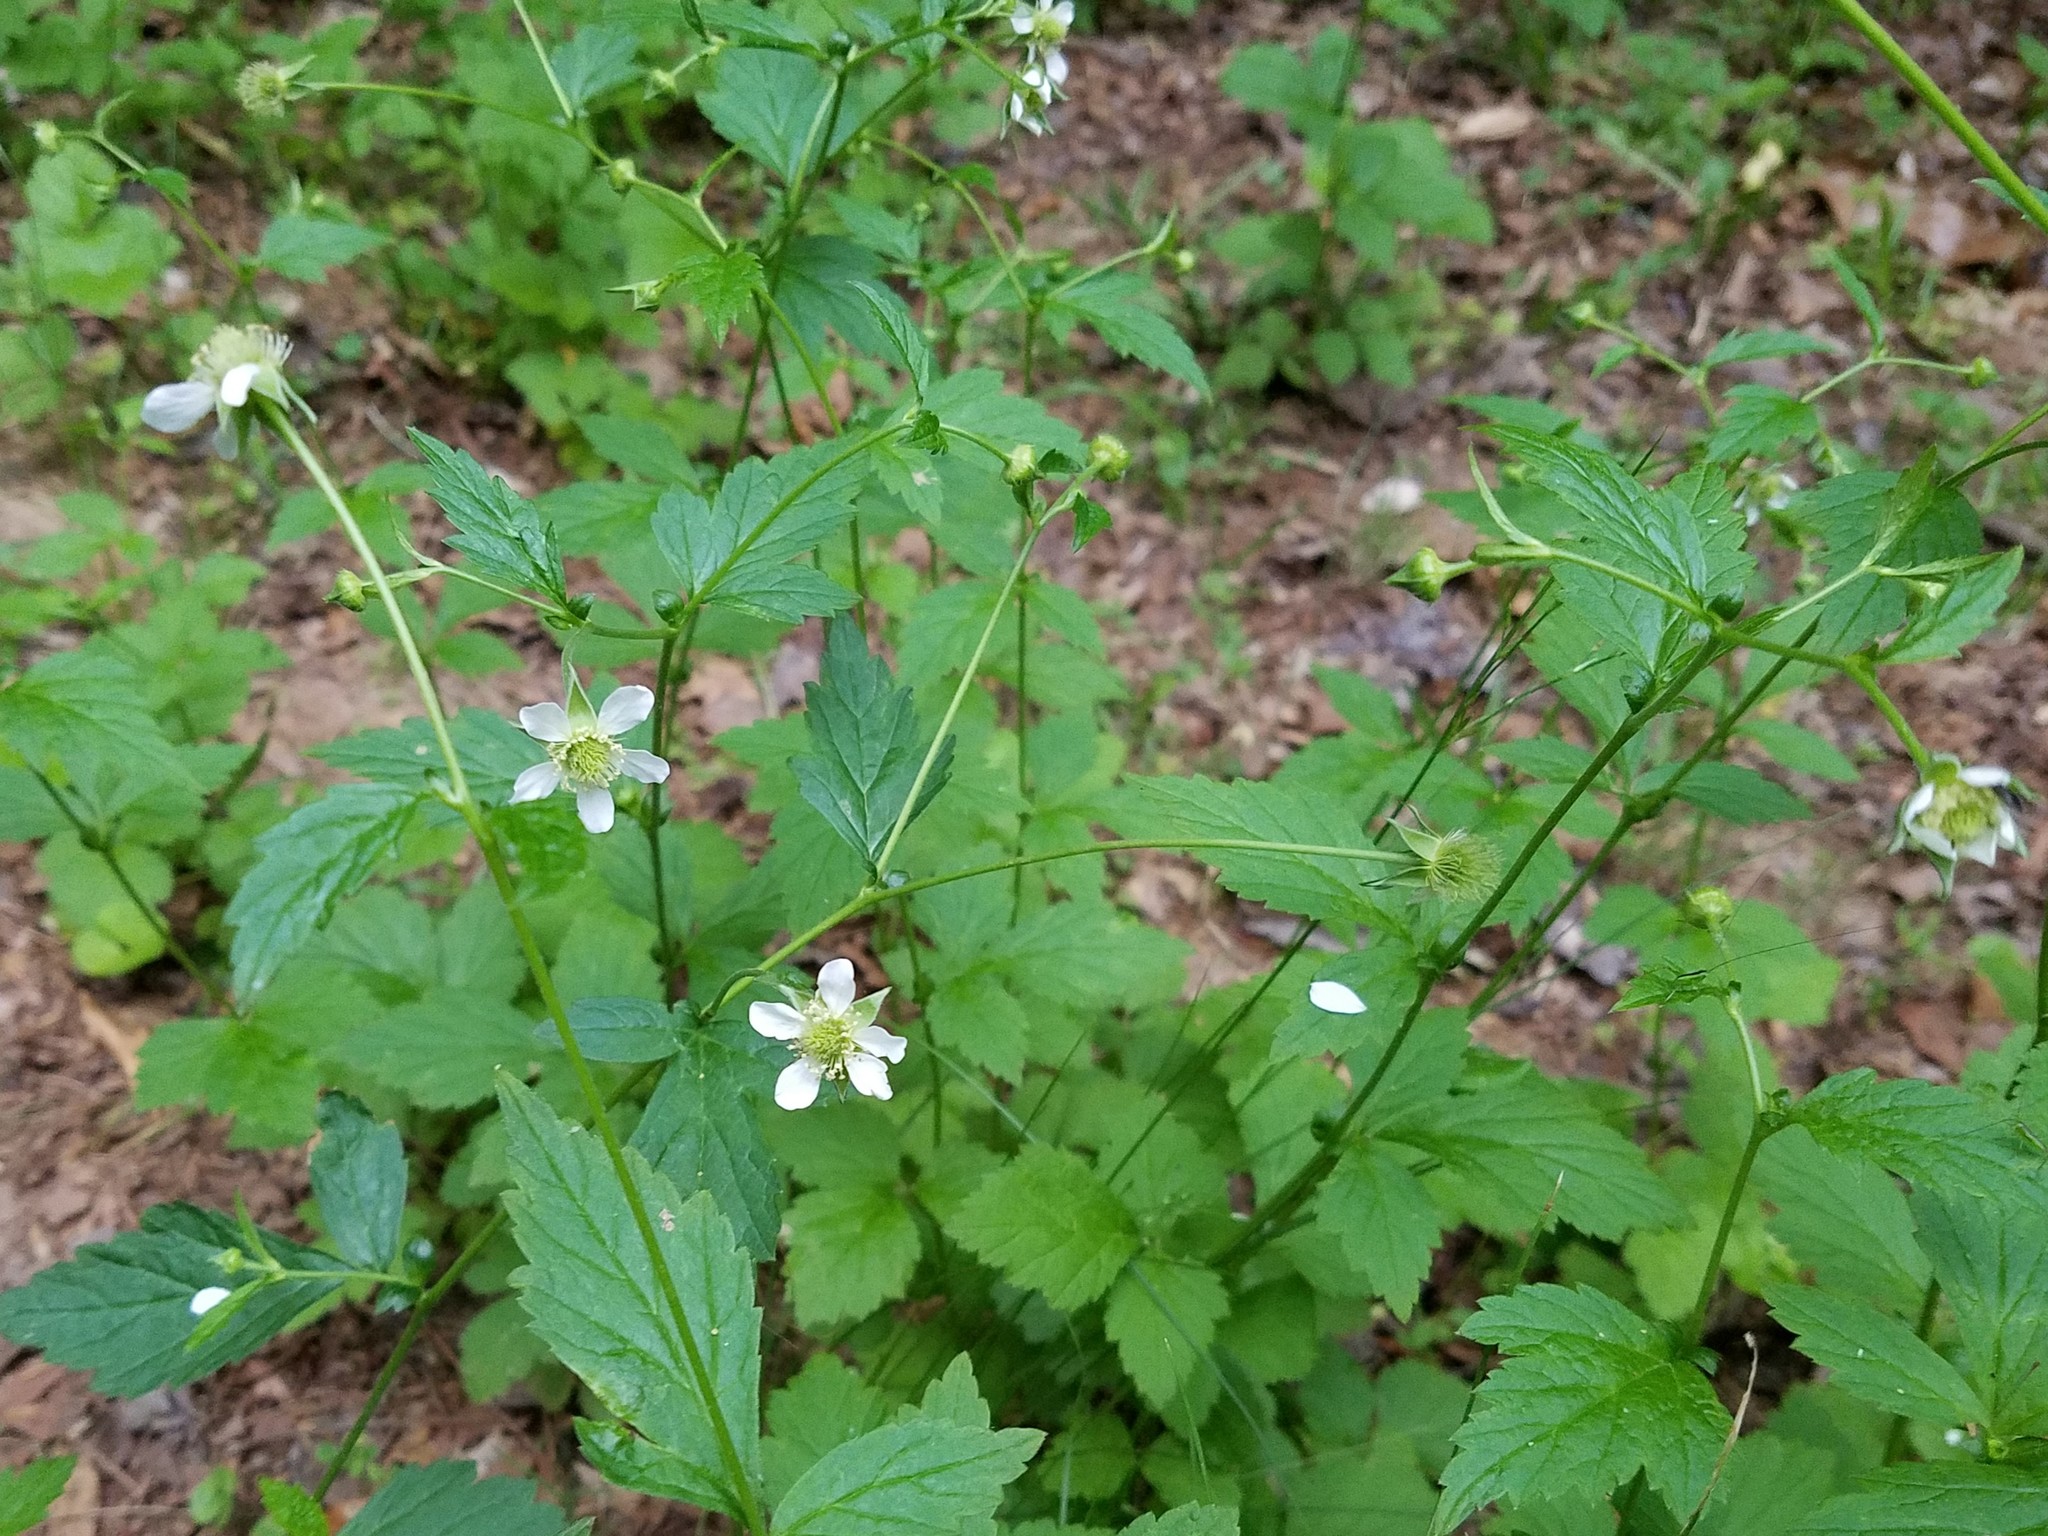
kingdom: Plantae
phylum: Tracheophyta
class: Magnoliopsida
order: Rosales
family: Rosaceae
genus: Geum
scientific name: Geum canadense
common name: White avens
